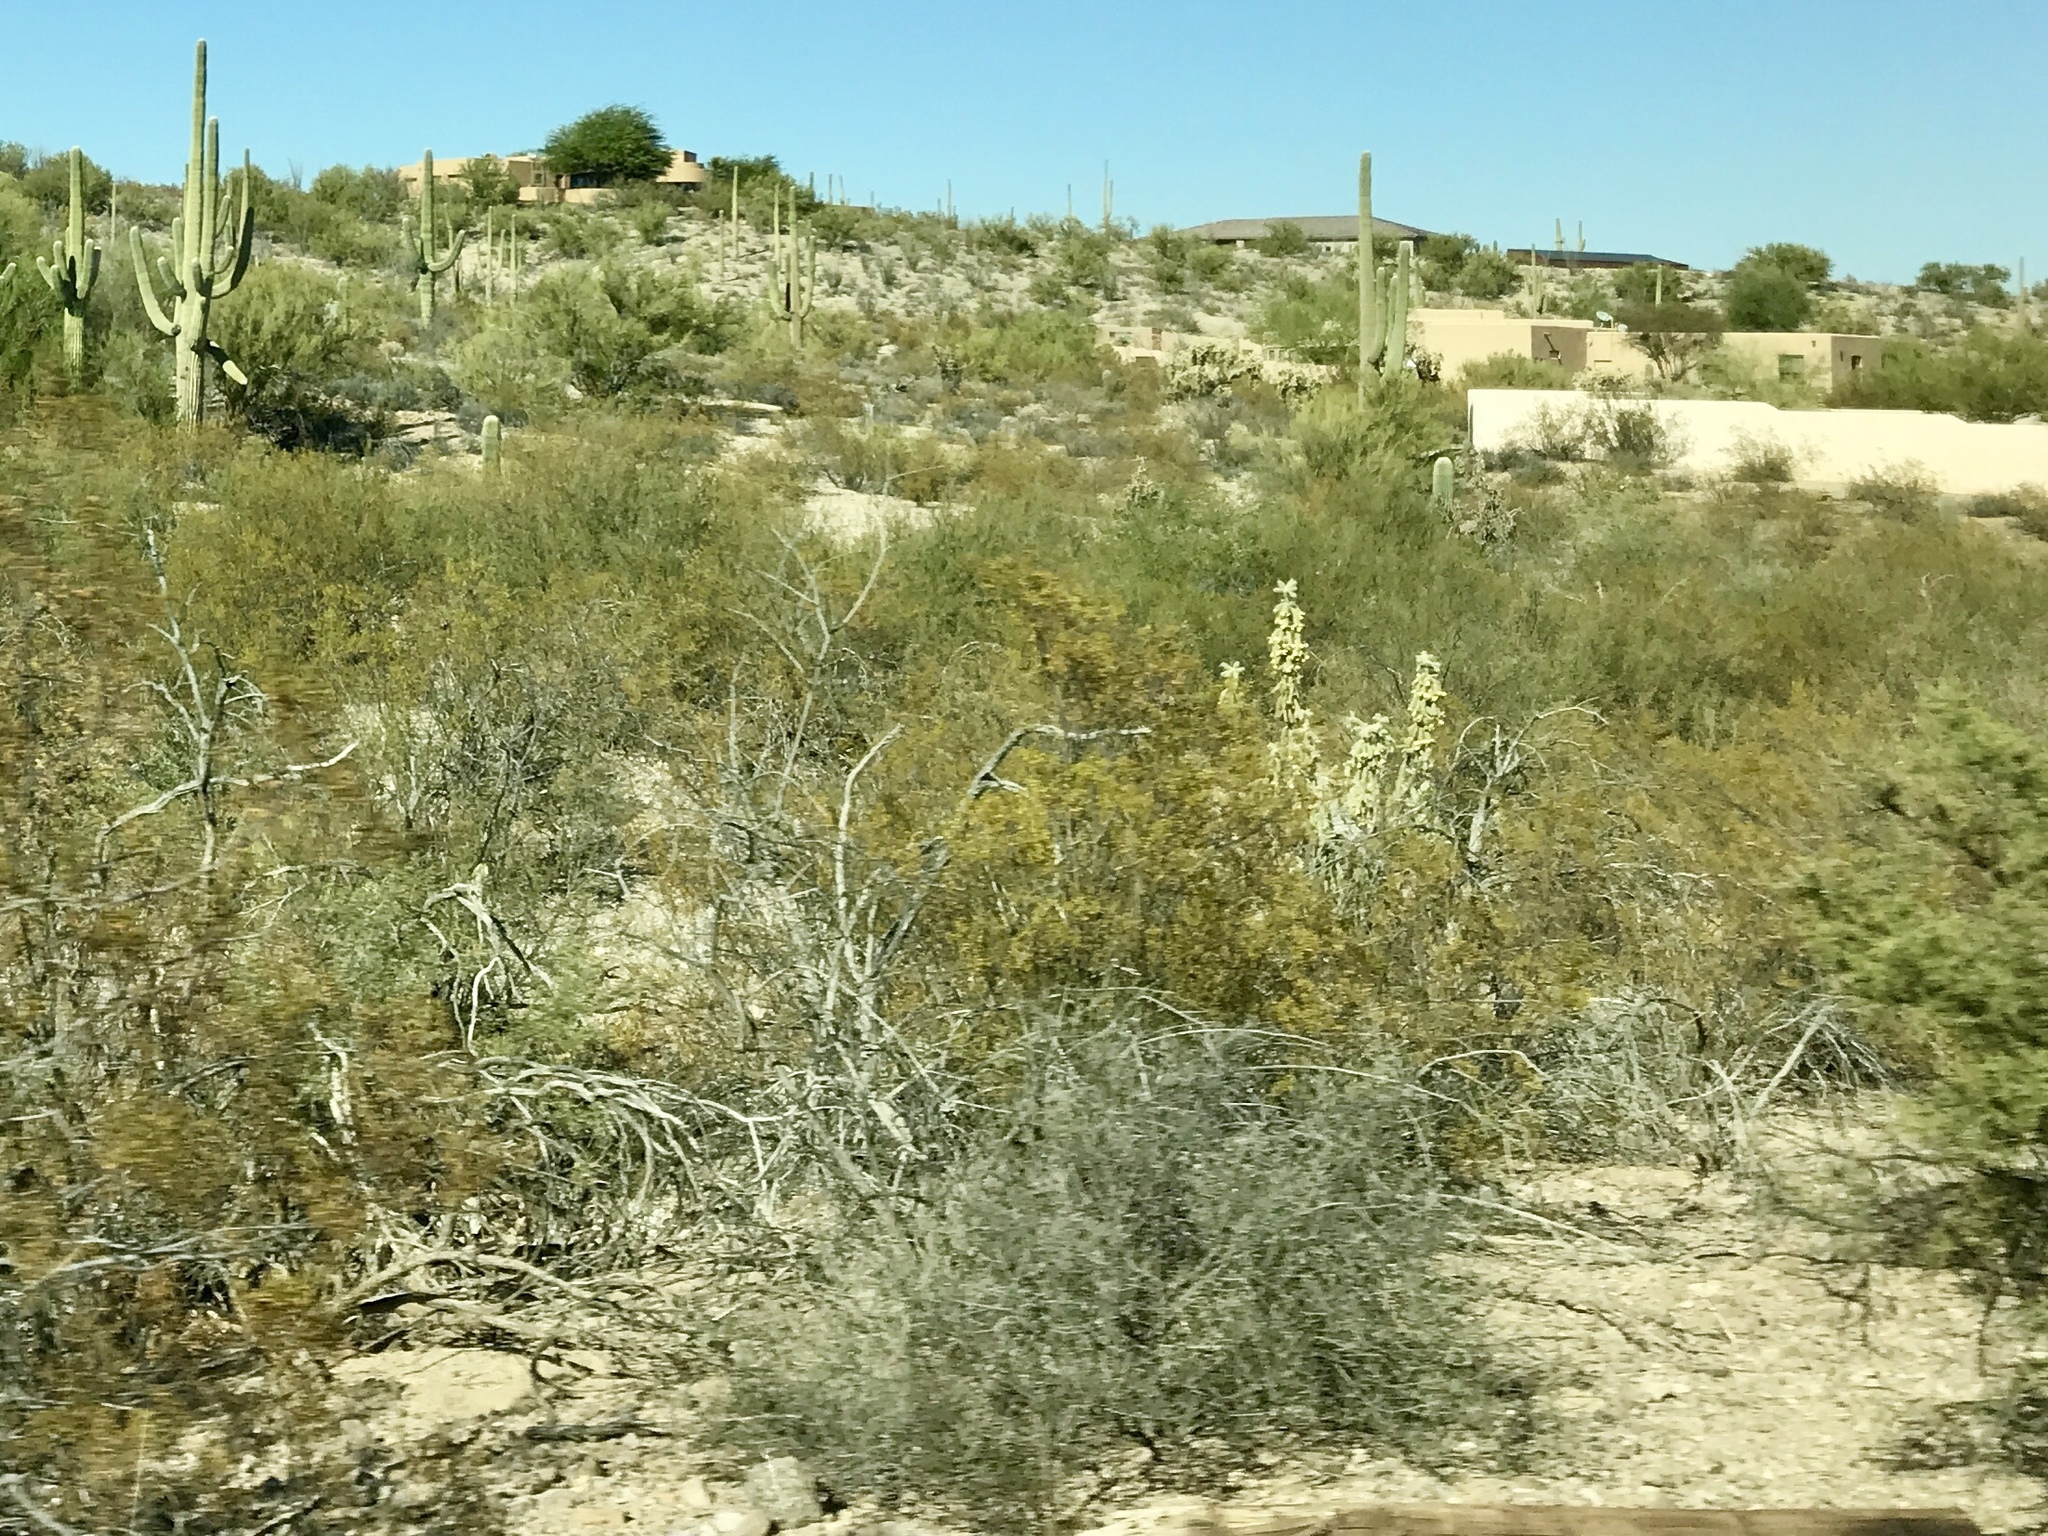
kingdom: Plantae
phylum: Tracheophyta
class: Magnoliopsida
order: Zygophyllales
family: Zygophyllaceae
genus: Larrea
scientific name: Larrea tridentata
